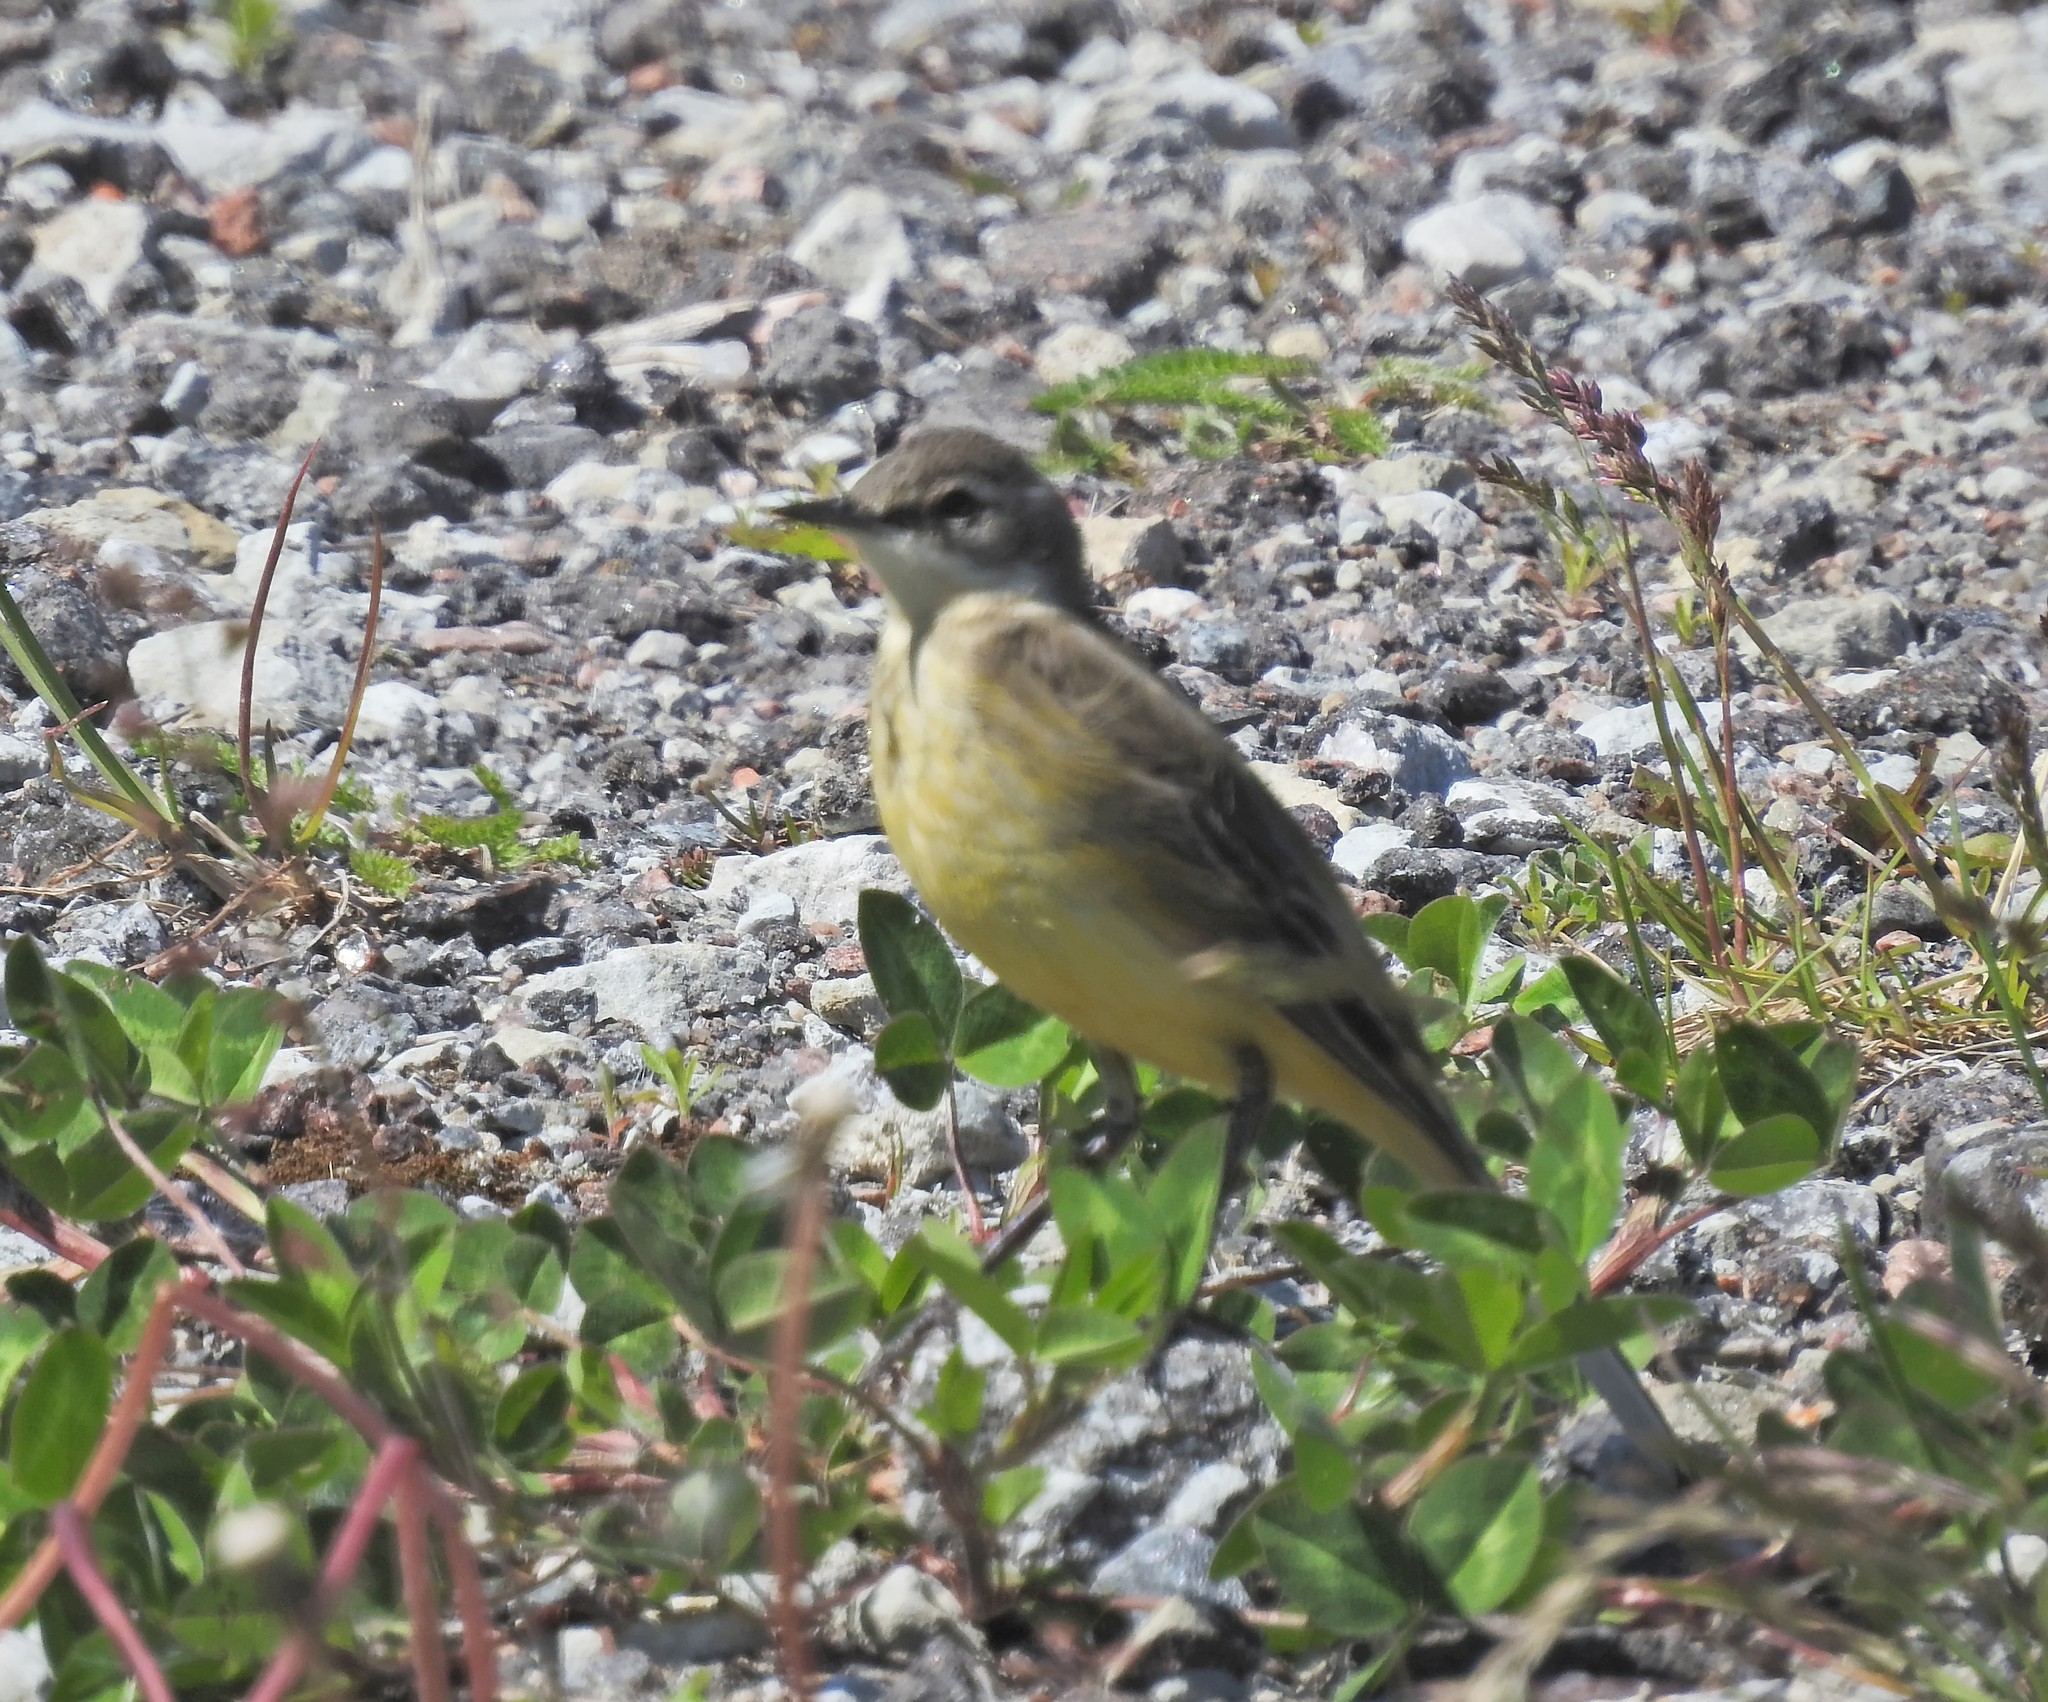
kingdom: Animalia
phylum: Chordata
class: Aves
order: Passeriformes
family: Motacillidae
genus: Motacilla
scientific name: Motacilla flava
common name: Western yellow wagtail
